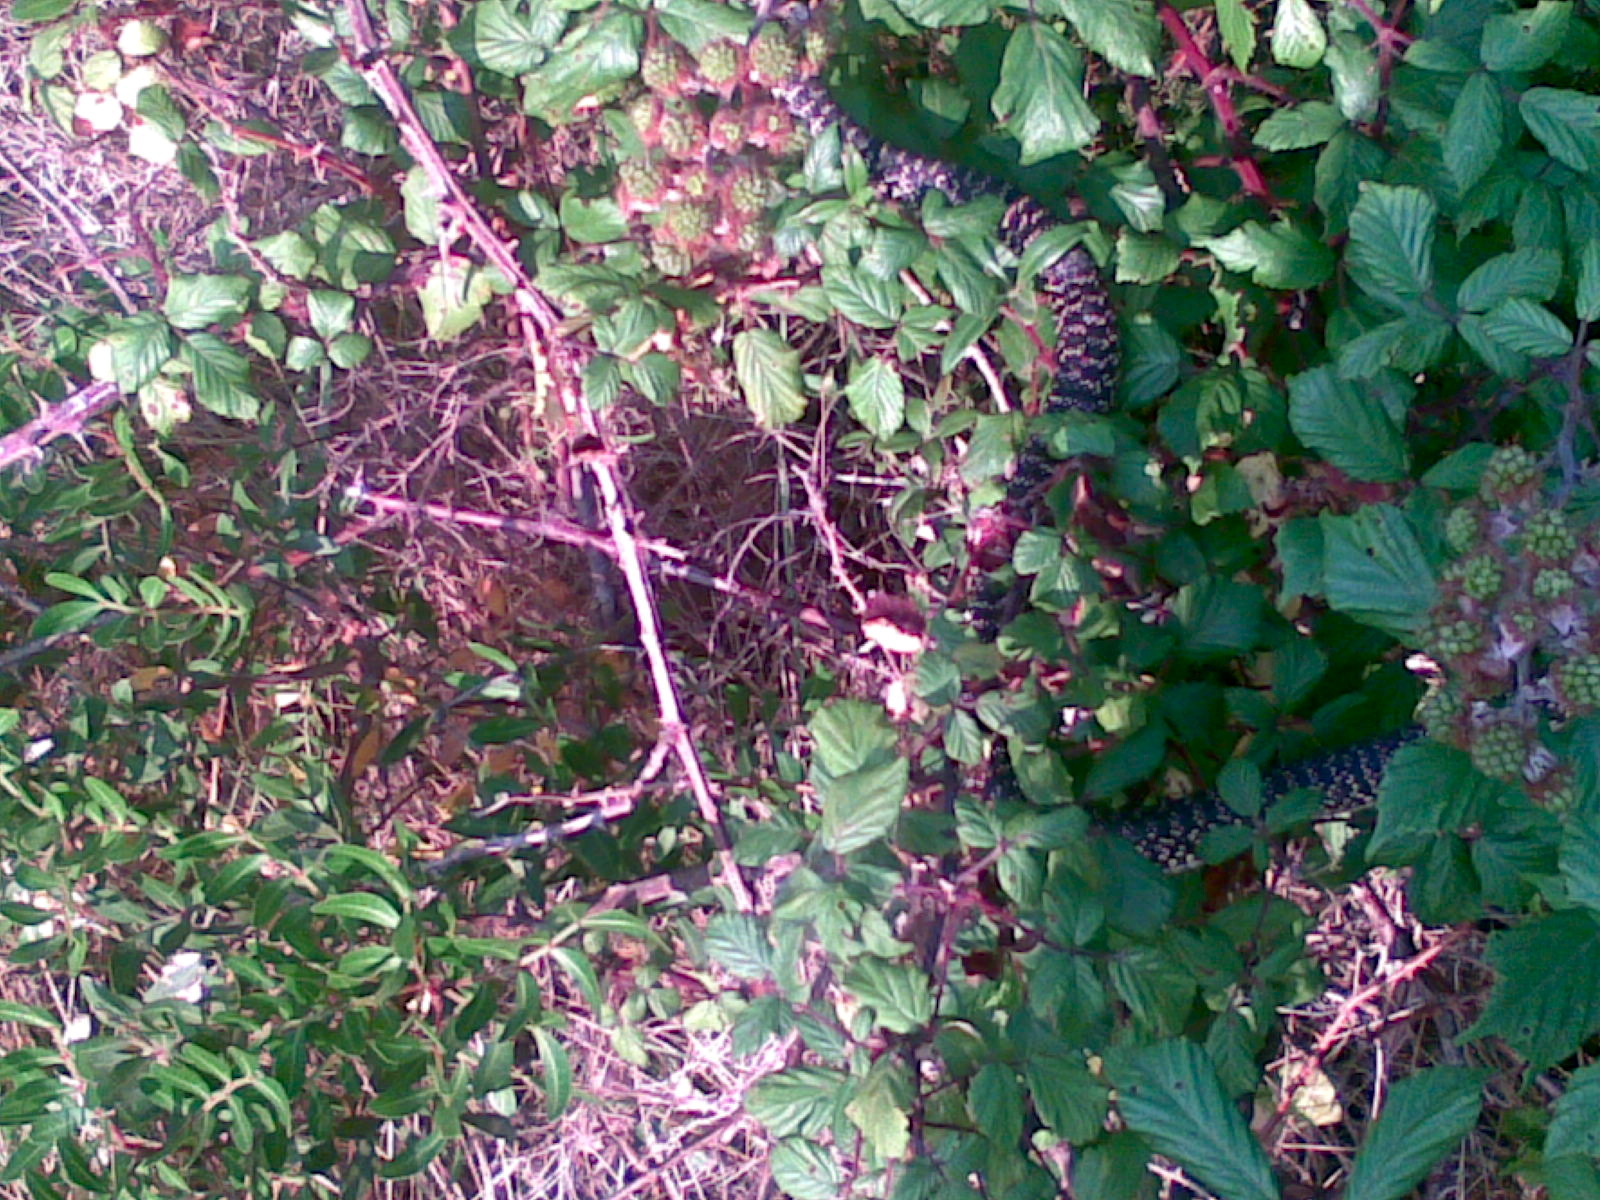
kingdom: Animalia
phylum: Chordata
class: Squamata
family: Colubridae
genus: Hierophis
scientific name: Hierophis viridiflavus
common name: Green whip snake
